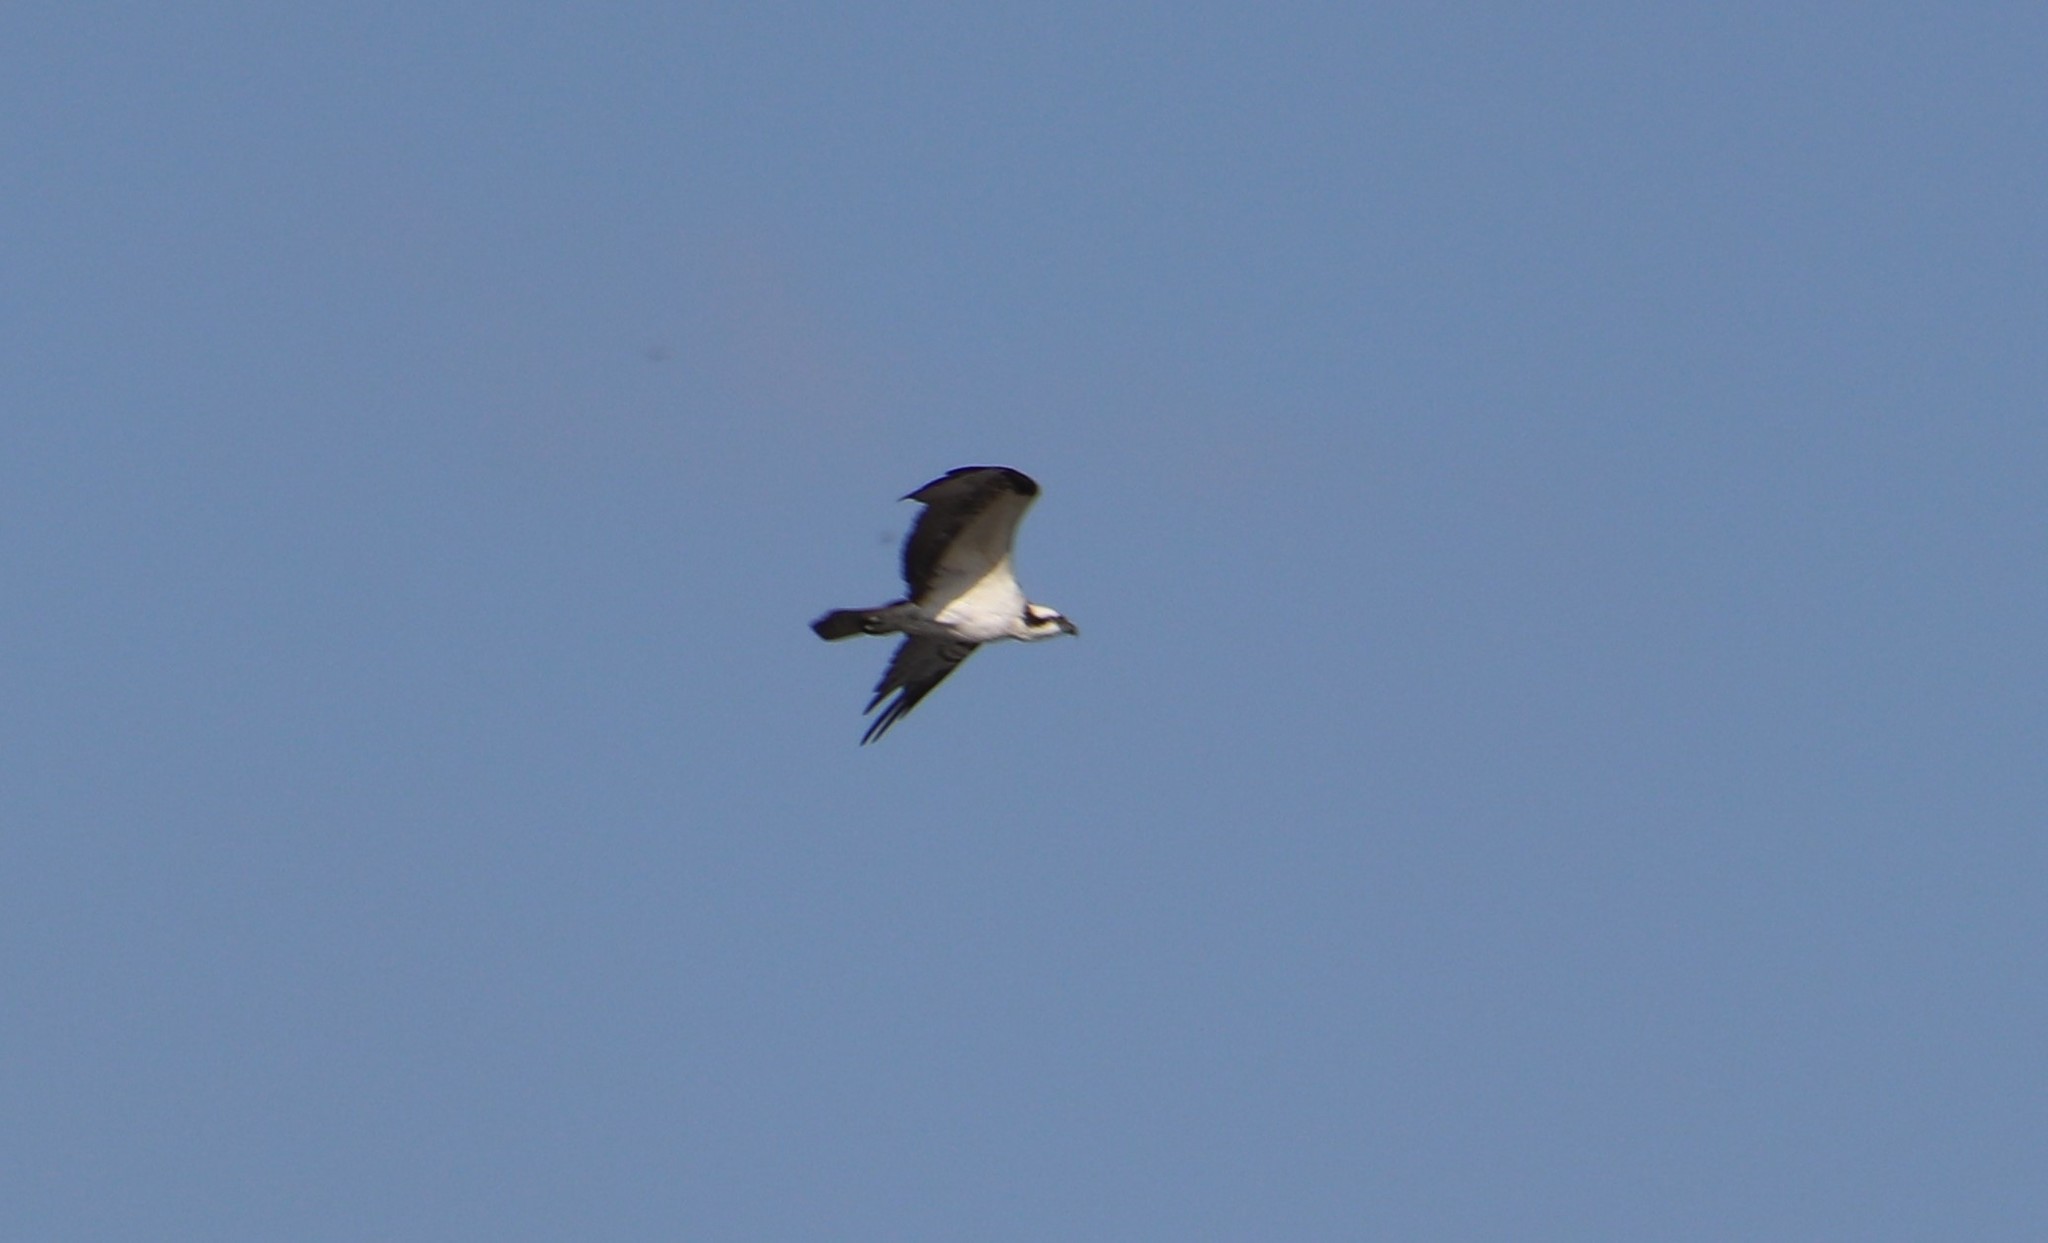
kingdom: Animalia
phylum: Chordata
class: Aves
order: Accipitriformes
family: Pandionidae
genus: Pandion
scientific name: Pandion haliaetus
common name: Osprey
